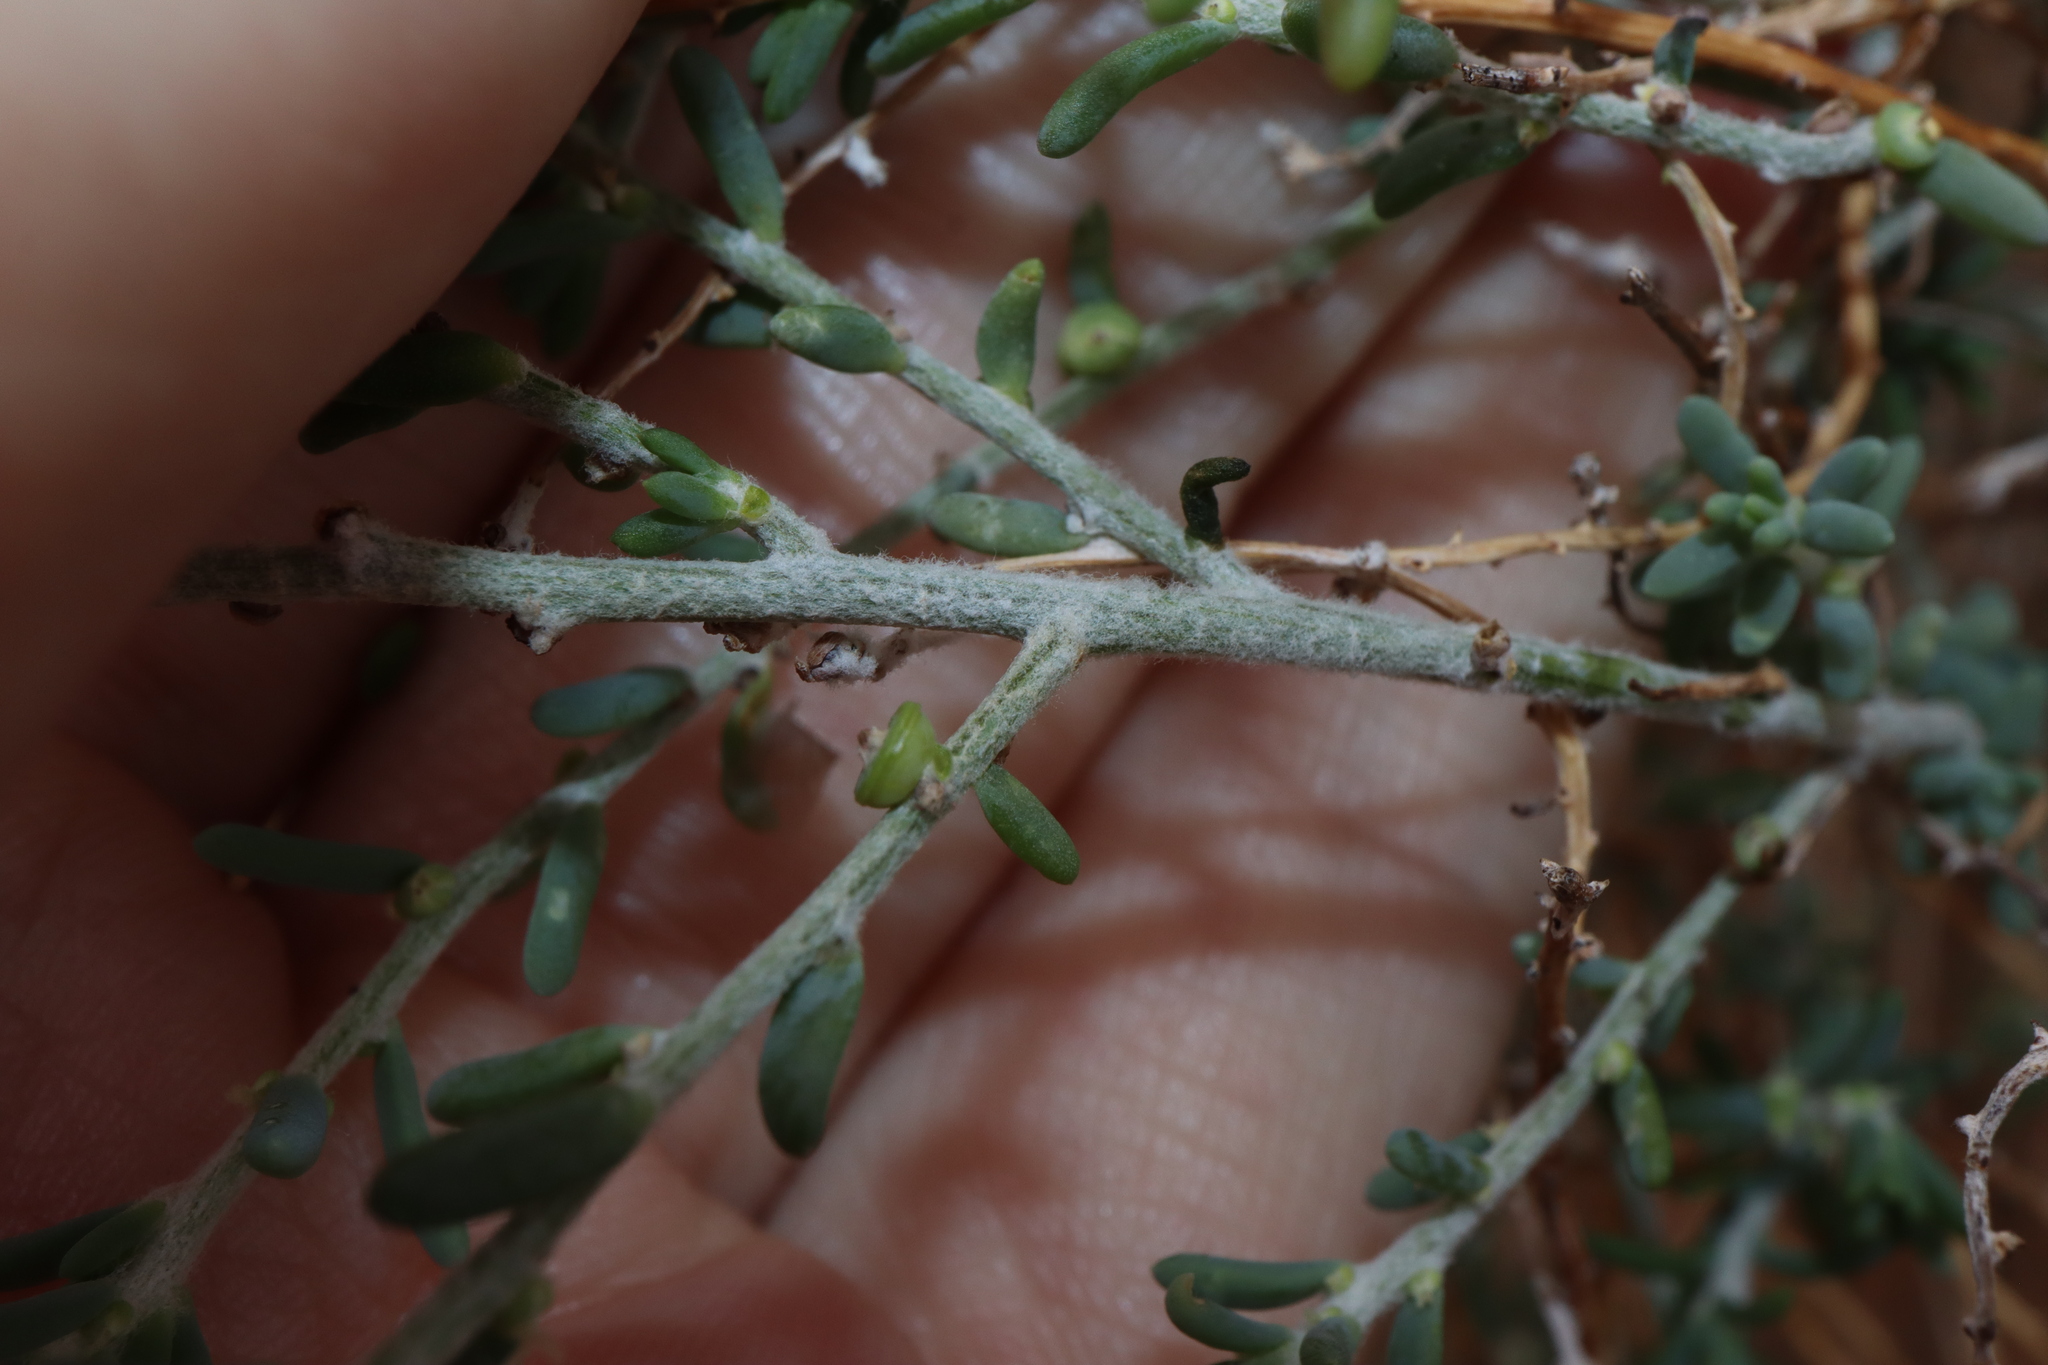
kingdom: Plantae
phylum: Tracheophyta
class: Magnoliopsida
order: Caryophyllales
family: Amaranthaceae
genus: Maireana
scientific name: Maireana microcarpa
